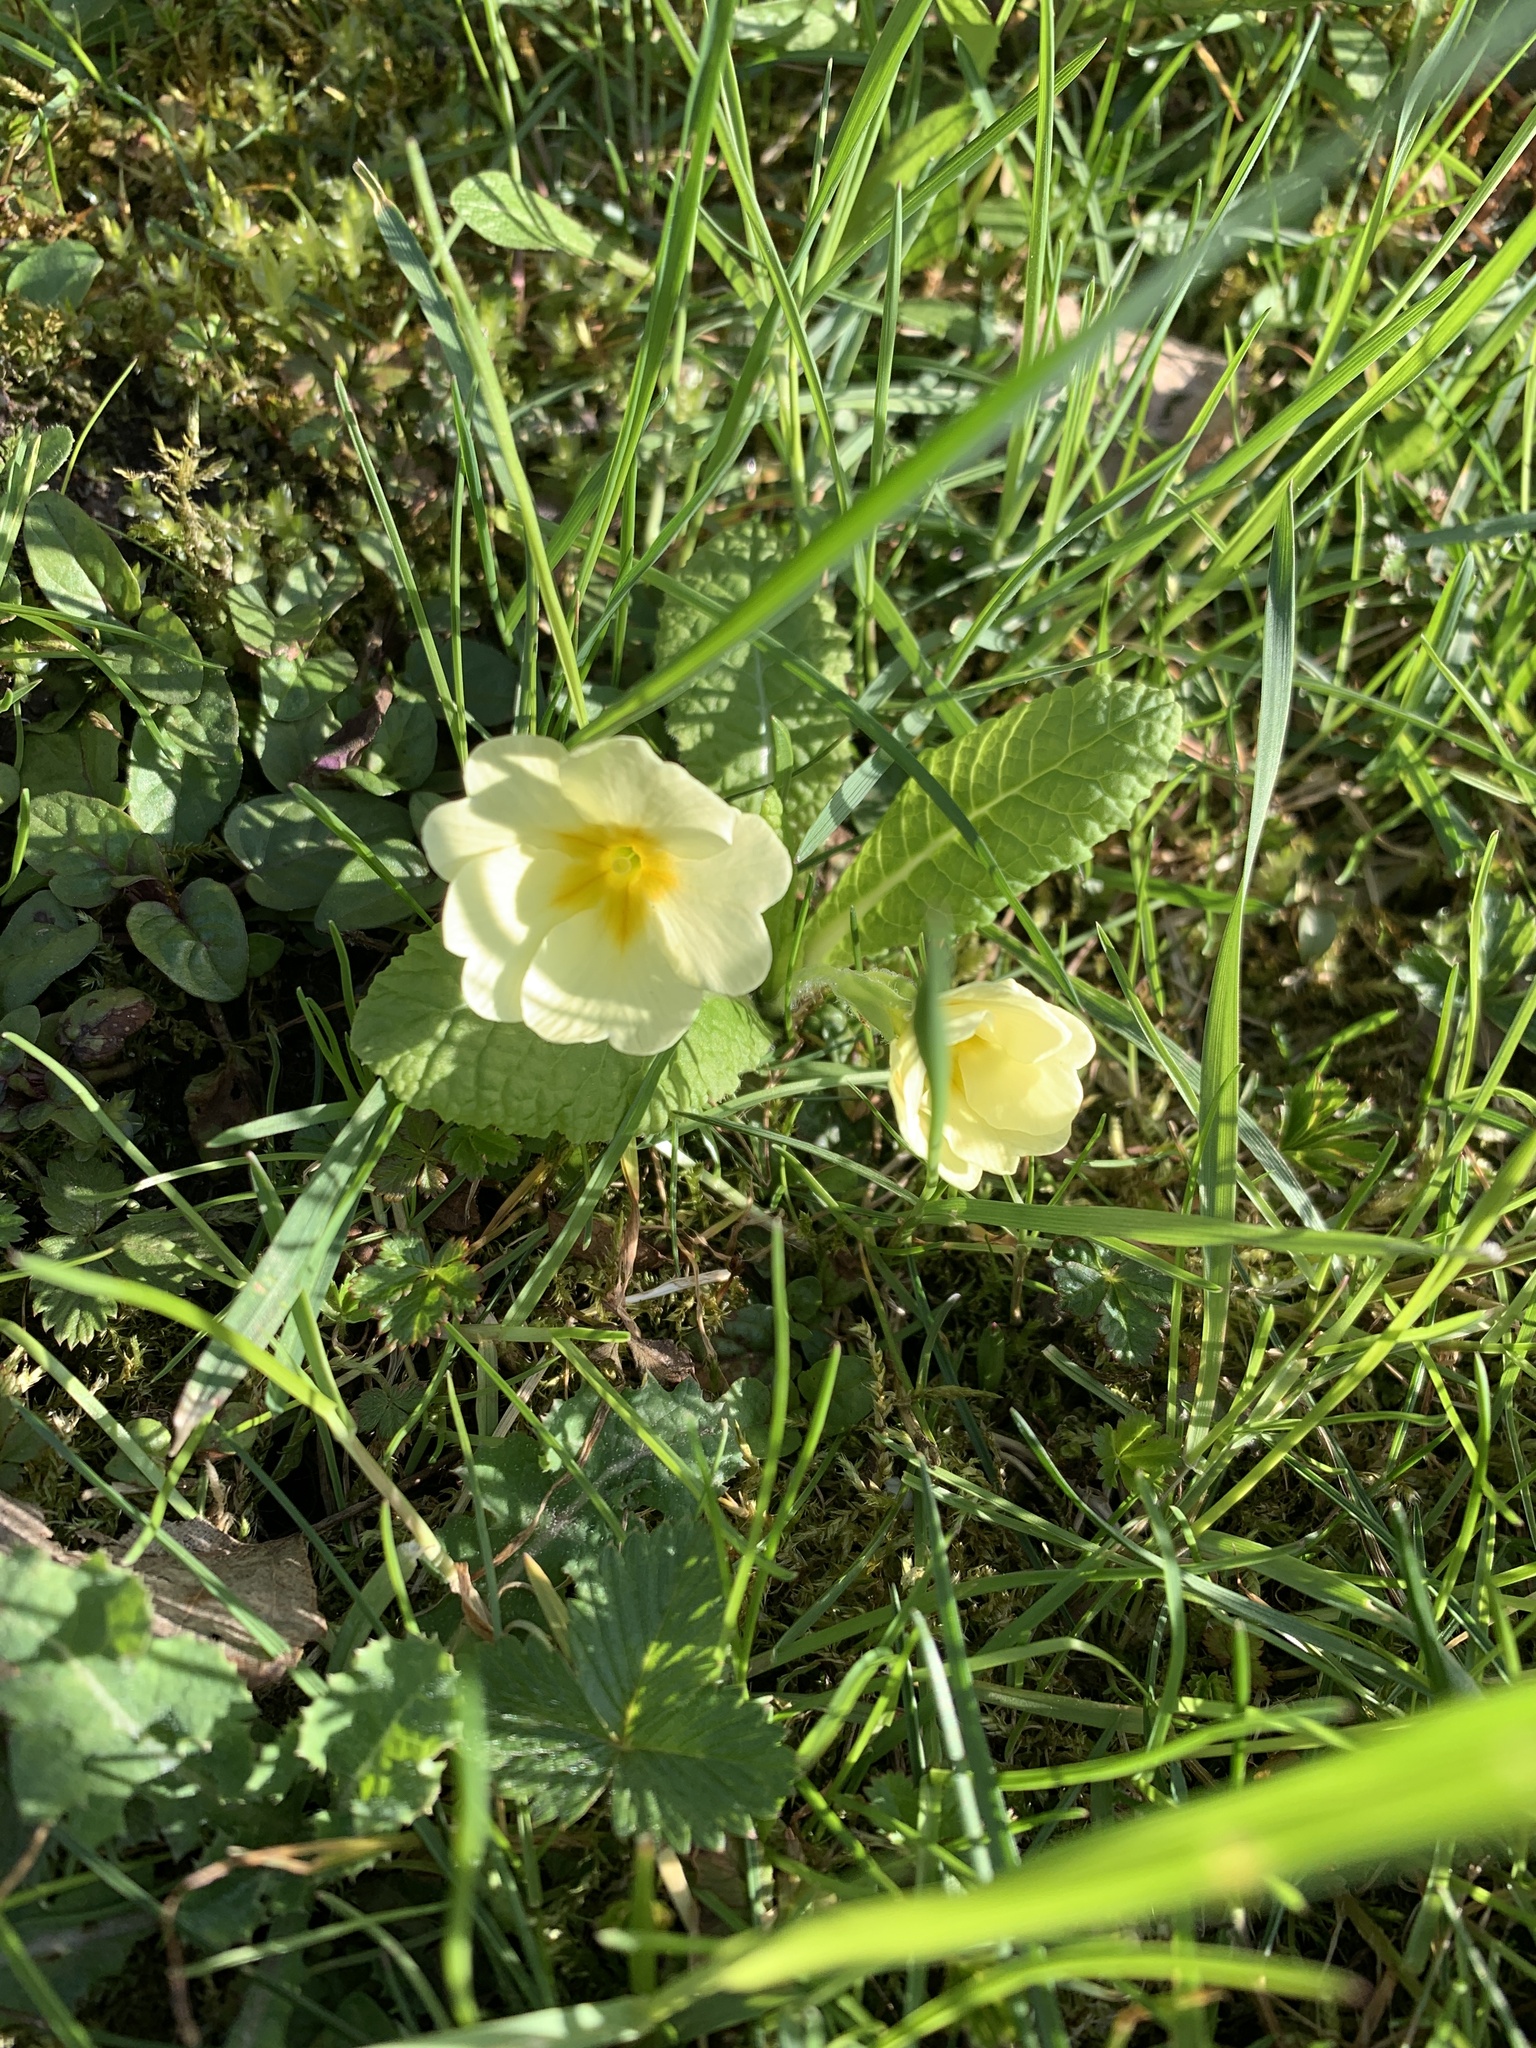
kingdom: Plantae
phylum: Tracheophyta
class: Magnoliopsida
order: Ericales
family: Primulaceae
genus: Primula
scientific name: Primula vulgaris
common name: Primrose
